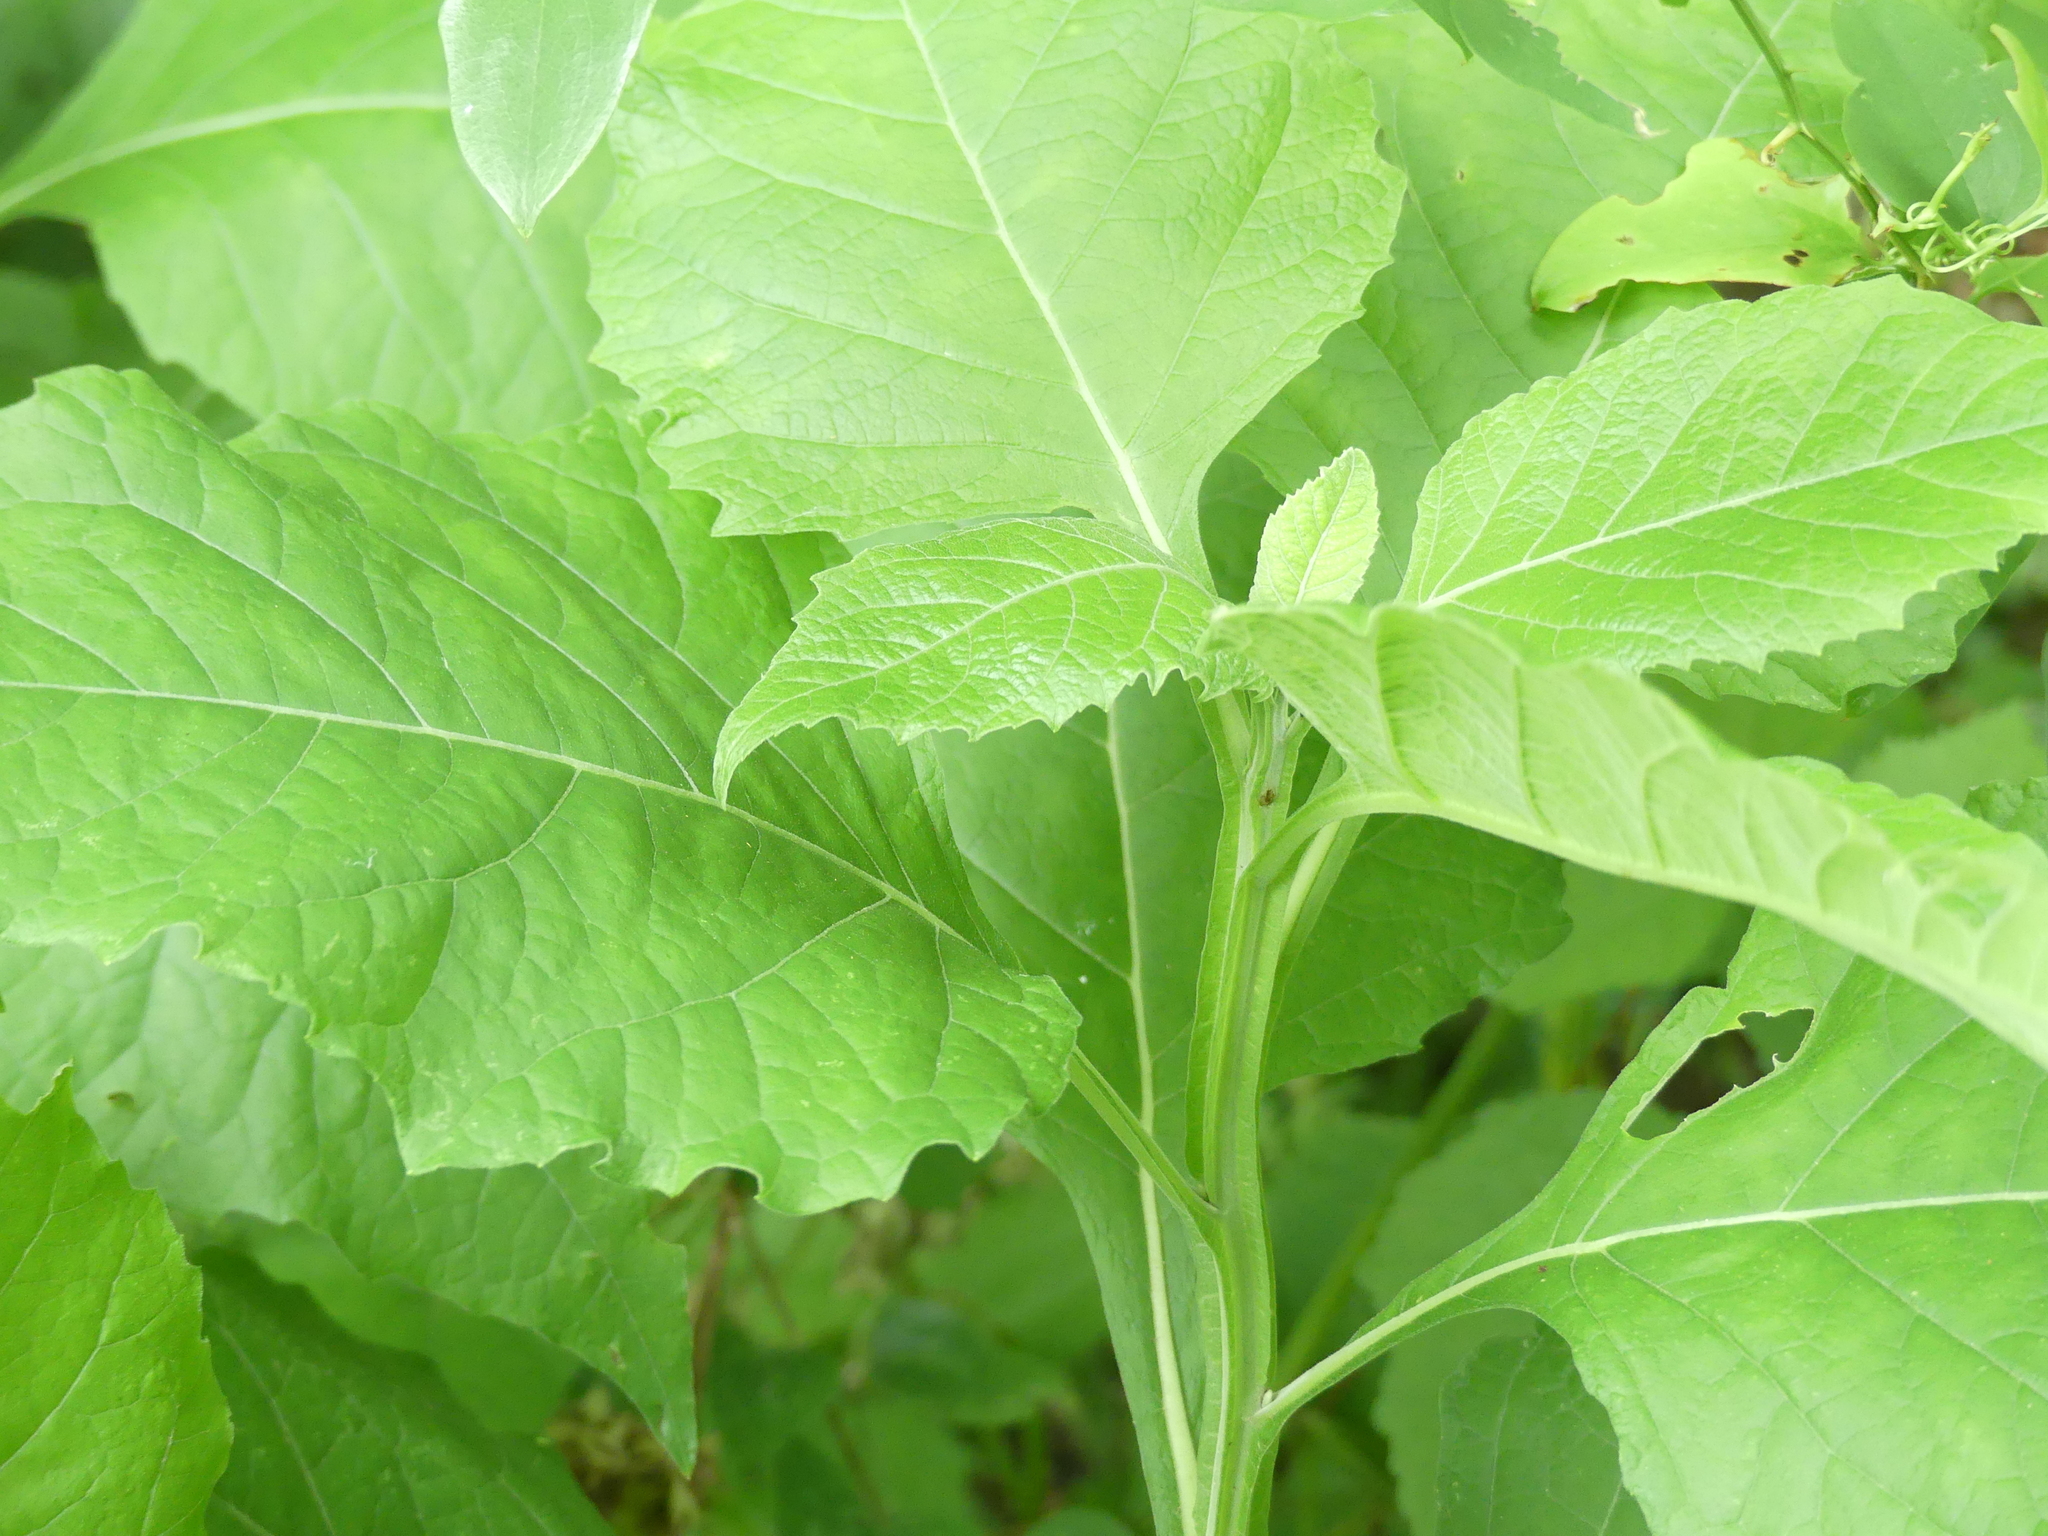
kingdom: Plantae
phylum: Tracheophyta
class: Magnoliopsida
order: Asterales
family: Asteraceae
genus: Verbesina
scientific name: Verbesina virginica
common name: Frostweed
